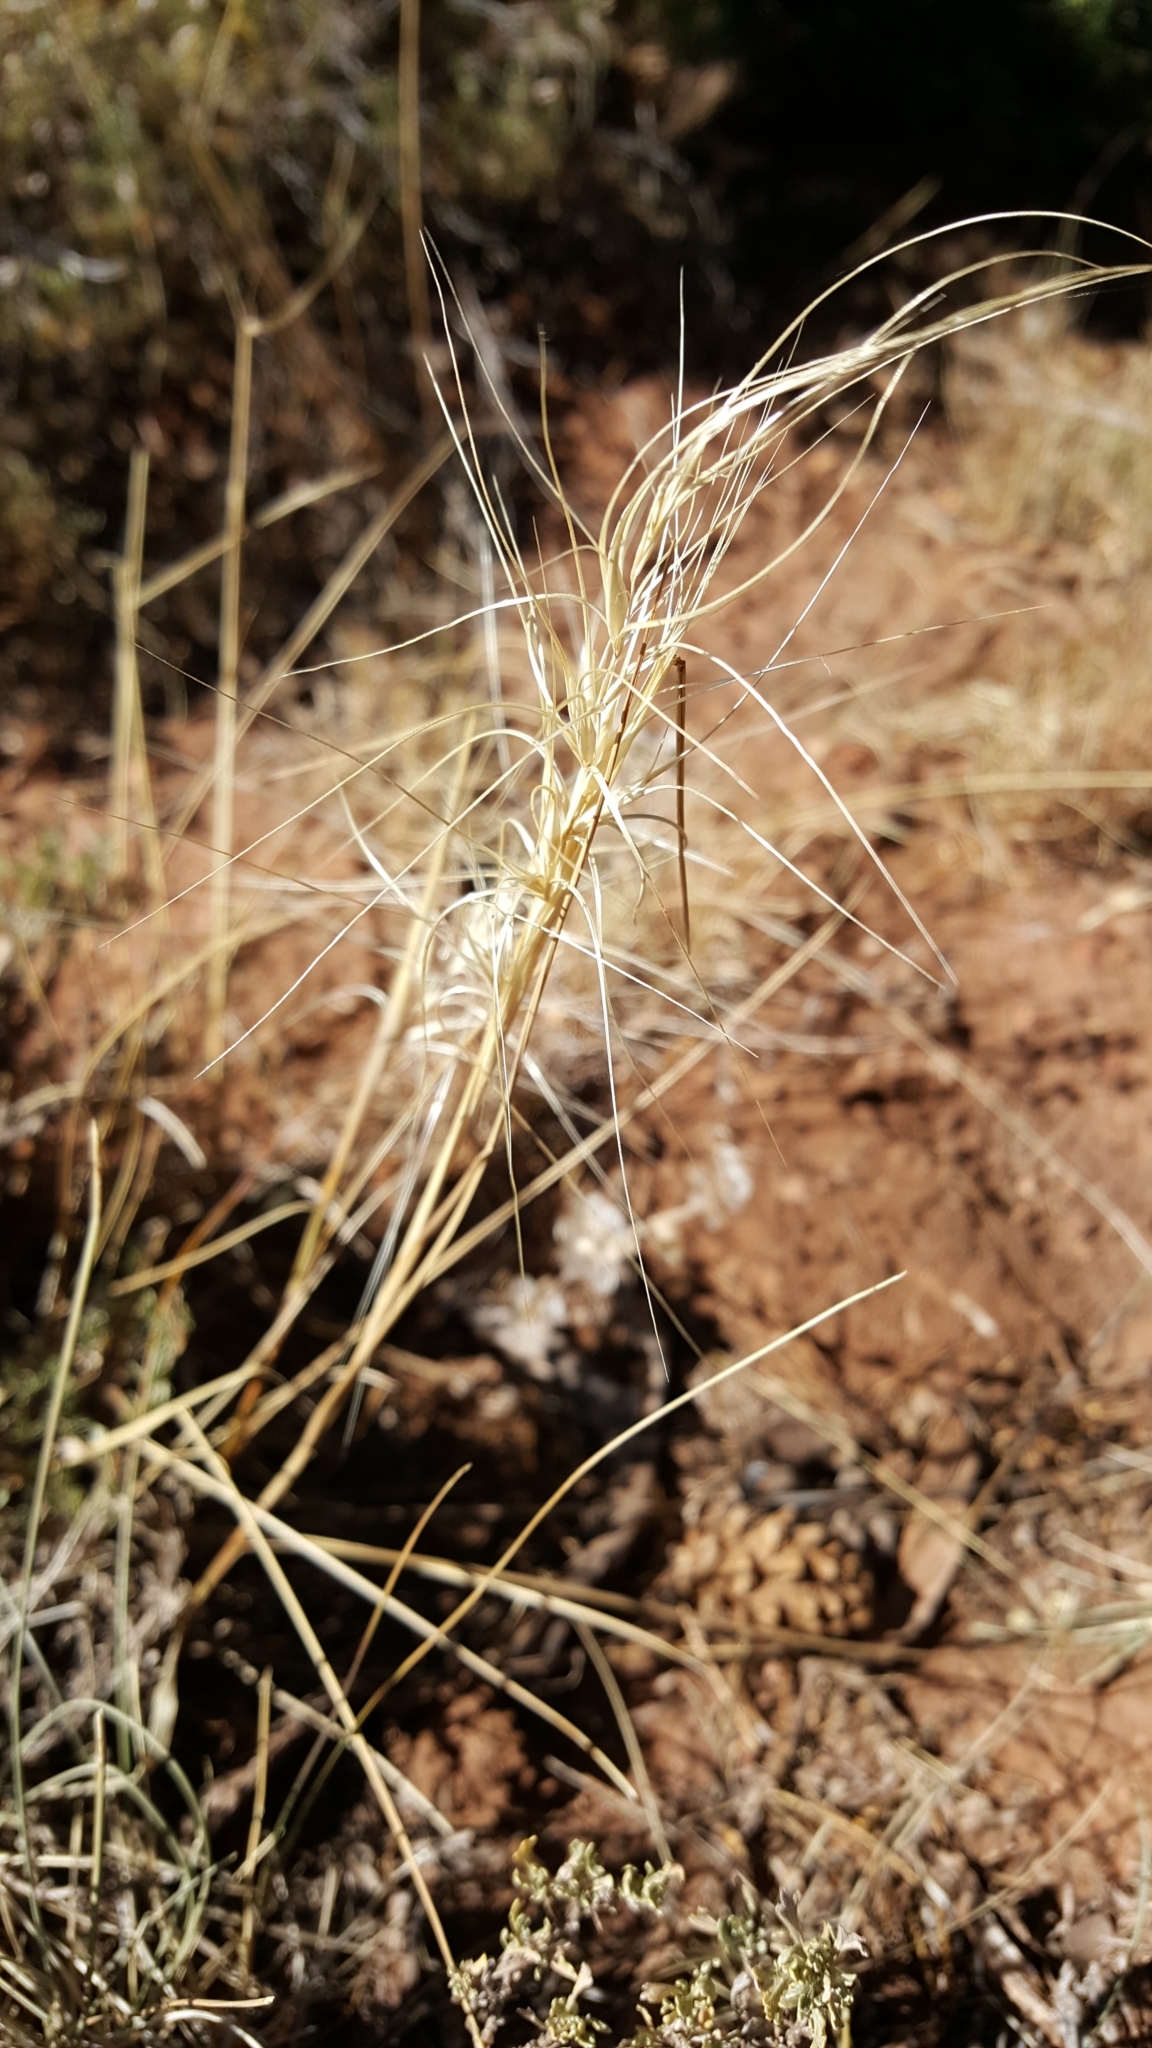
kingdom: Plantae
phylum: Tracheophyta
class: Liliopsida
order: Poales
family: Poaceae
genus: Elymus
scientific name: Elymus elymoides
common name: Bottlebrush squirreltail
